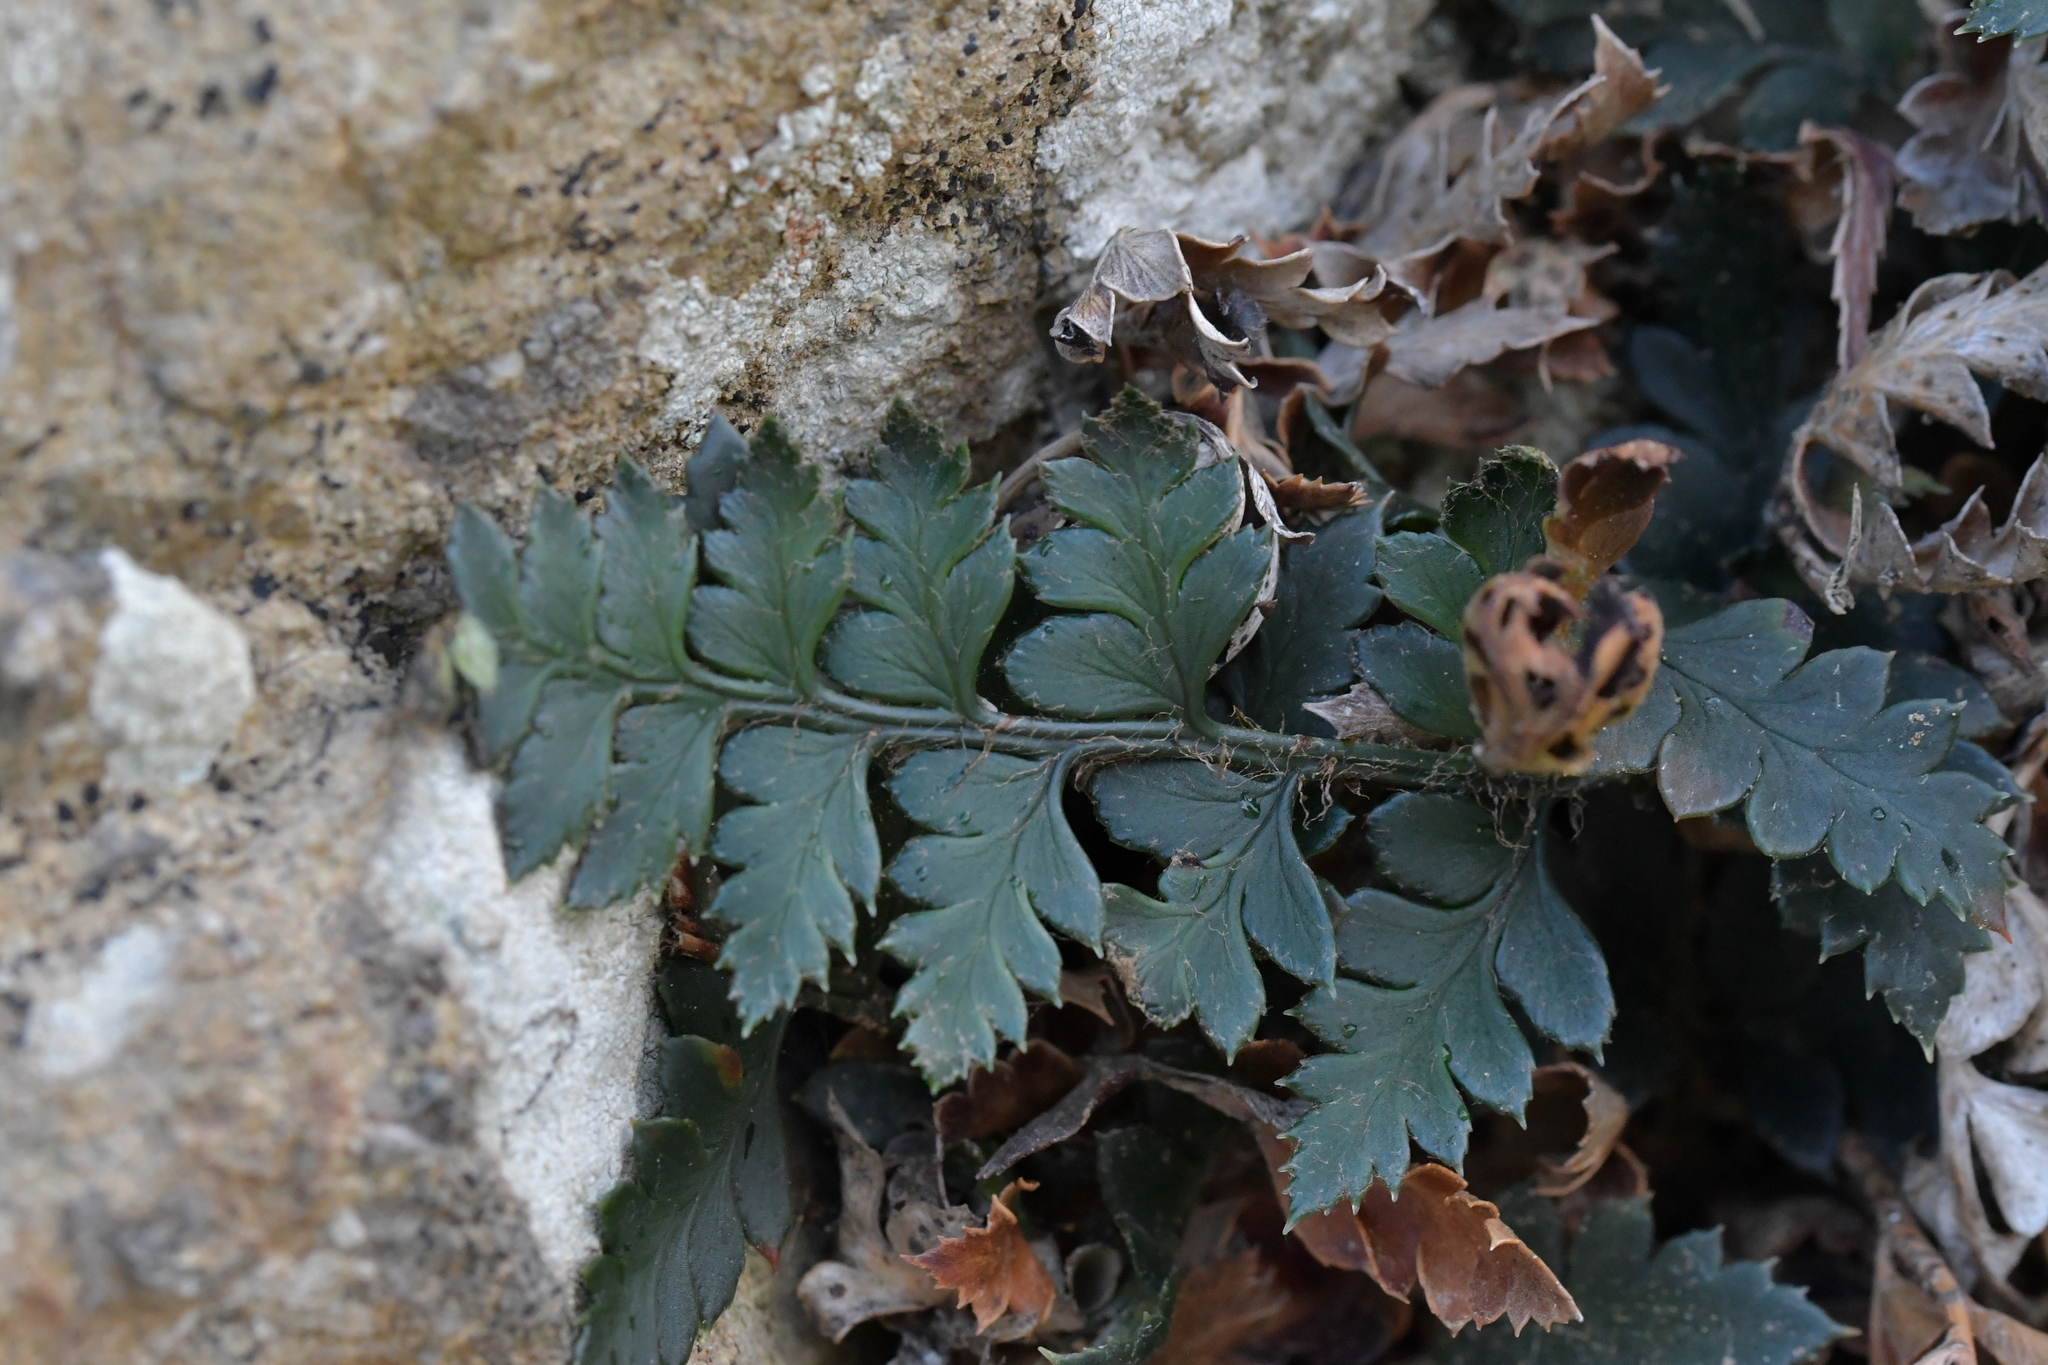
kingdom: Plantae
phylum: Tracheophyta
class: Polypodiopsida
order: Polypodiales
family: Dryopteridaceae
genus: Polystichum
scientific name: Polystichum oculatum
